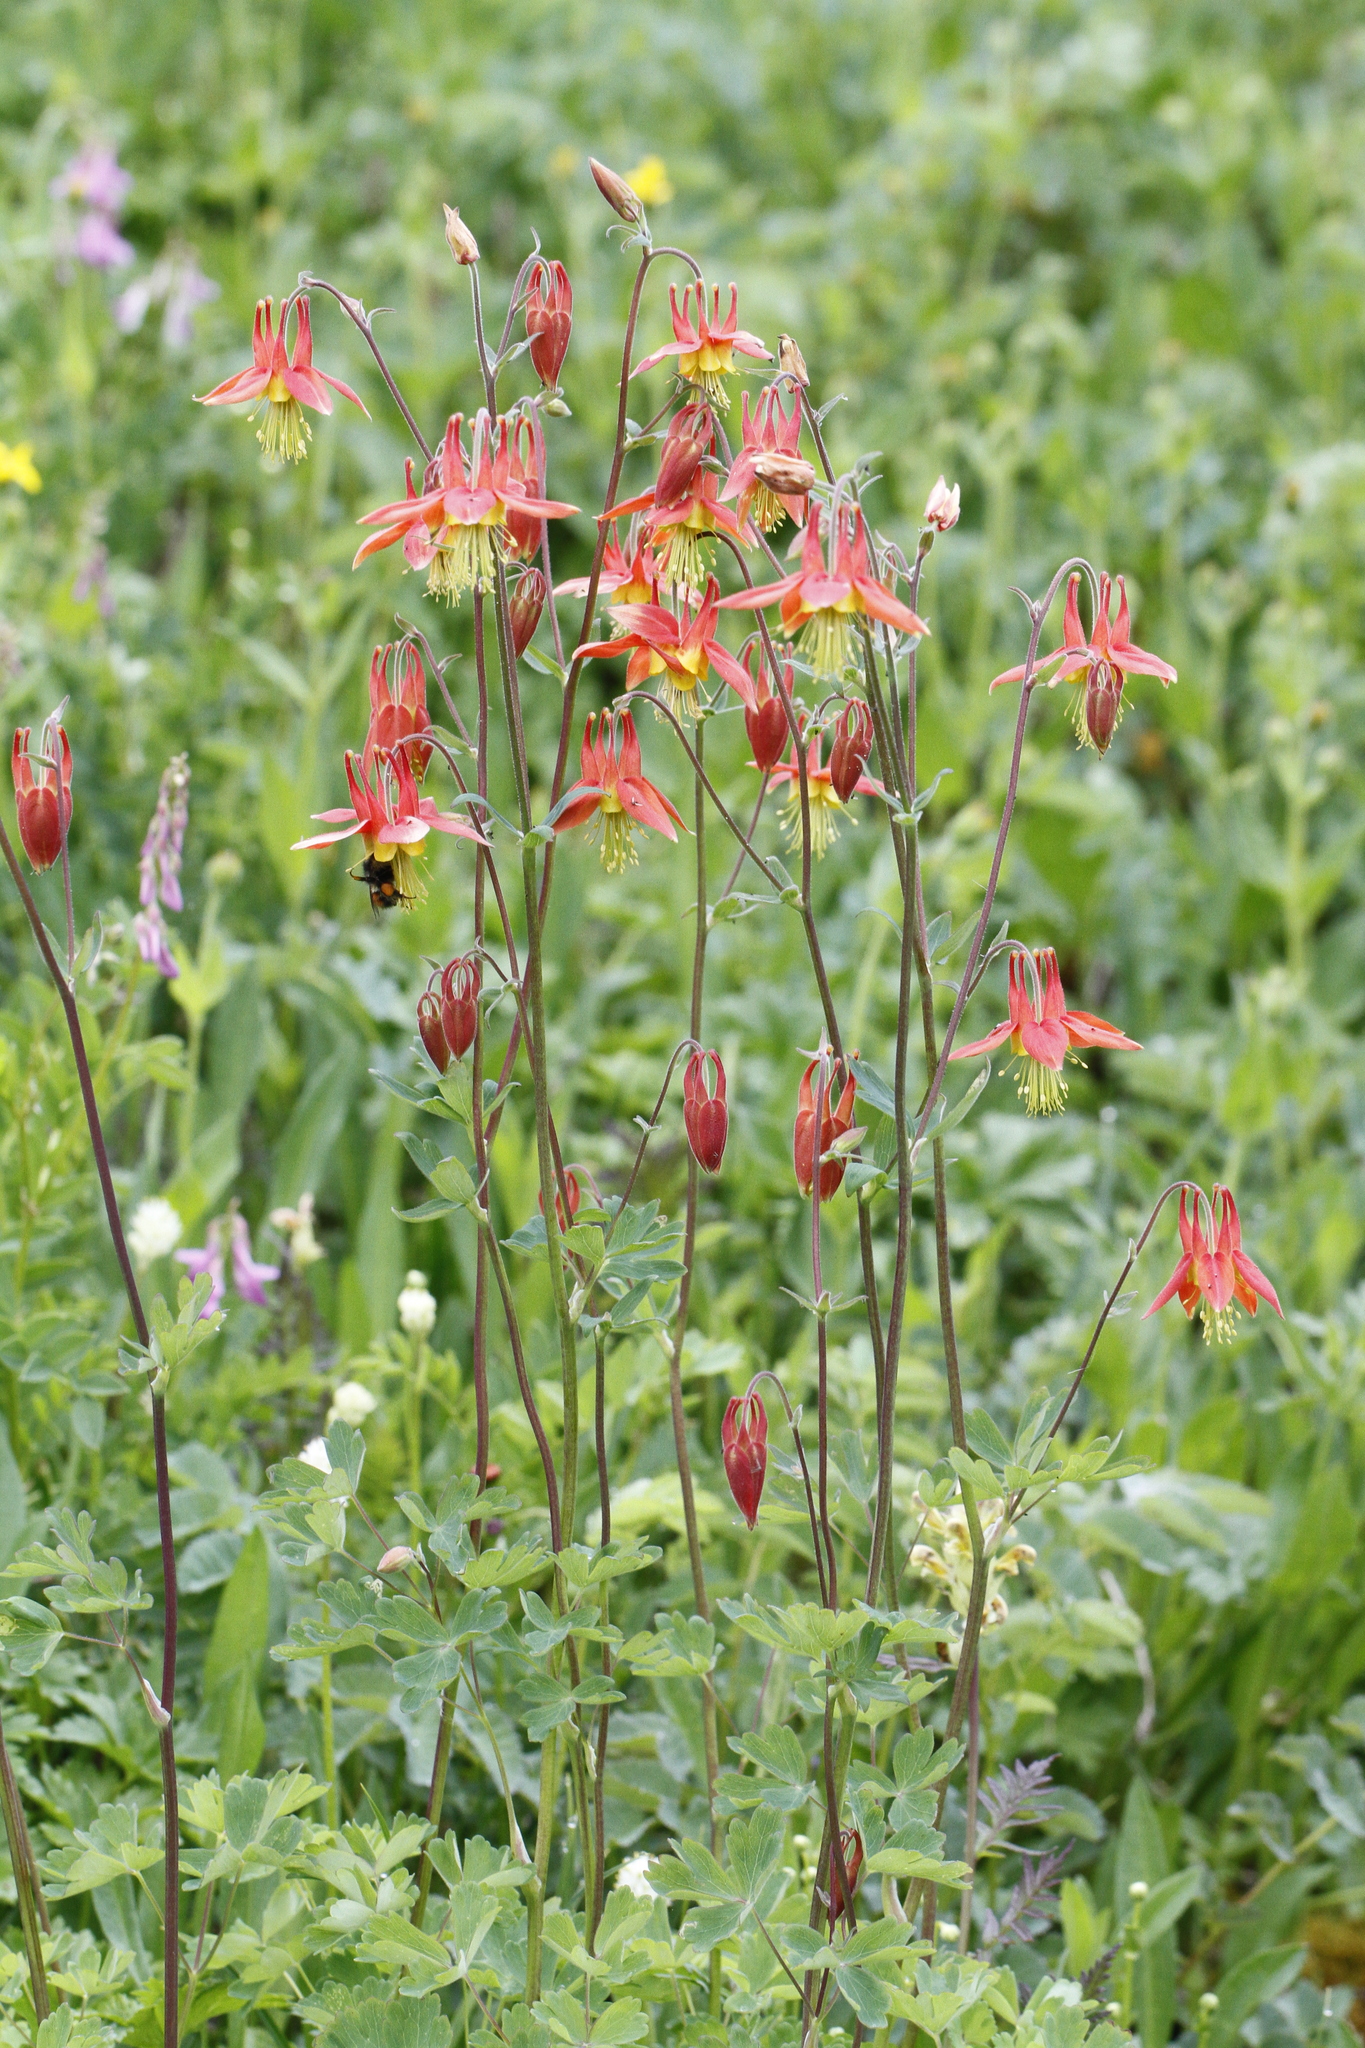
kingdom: Plantae
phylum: Tracheophyta
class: Magnoliopsida
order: Ranunculales
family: Ranunculaceae
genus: Aquilegia
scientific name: Aquilegia formosa
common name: Sitka columbine
